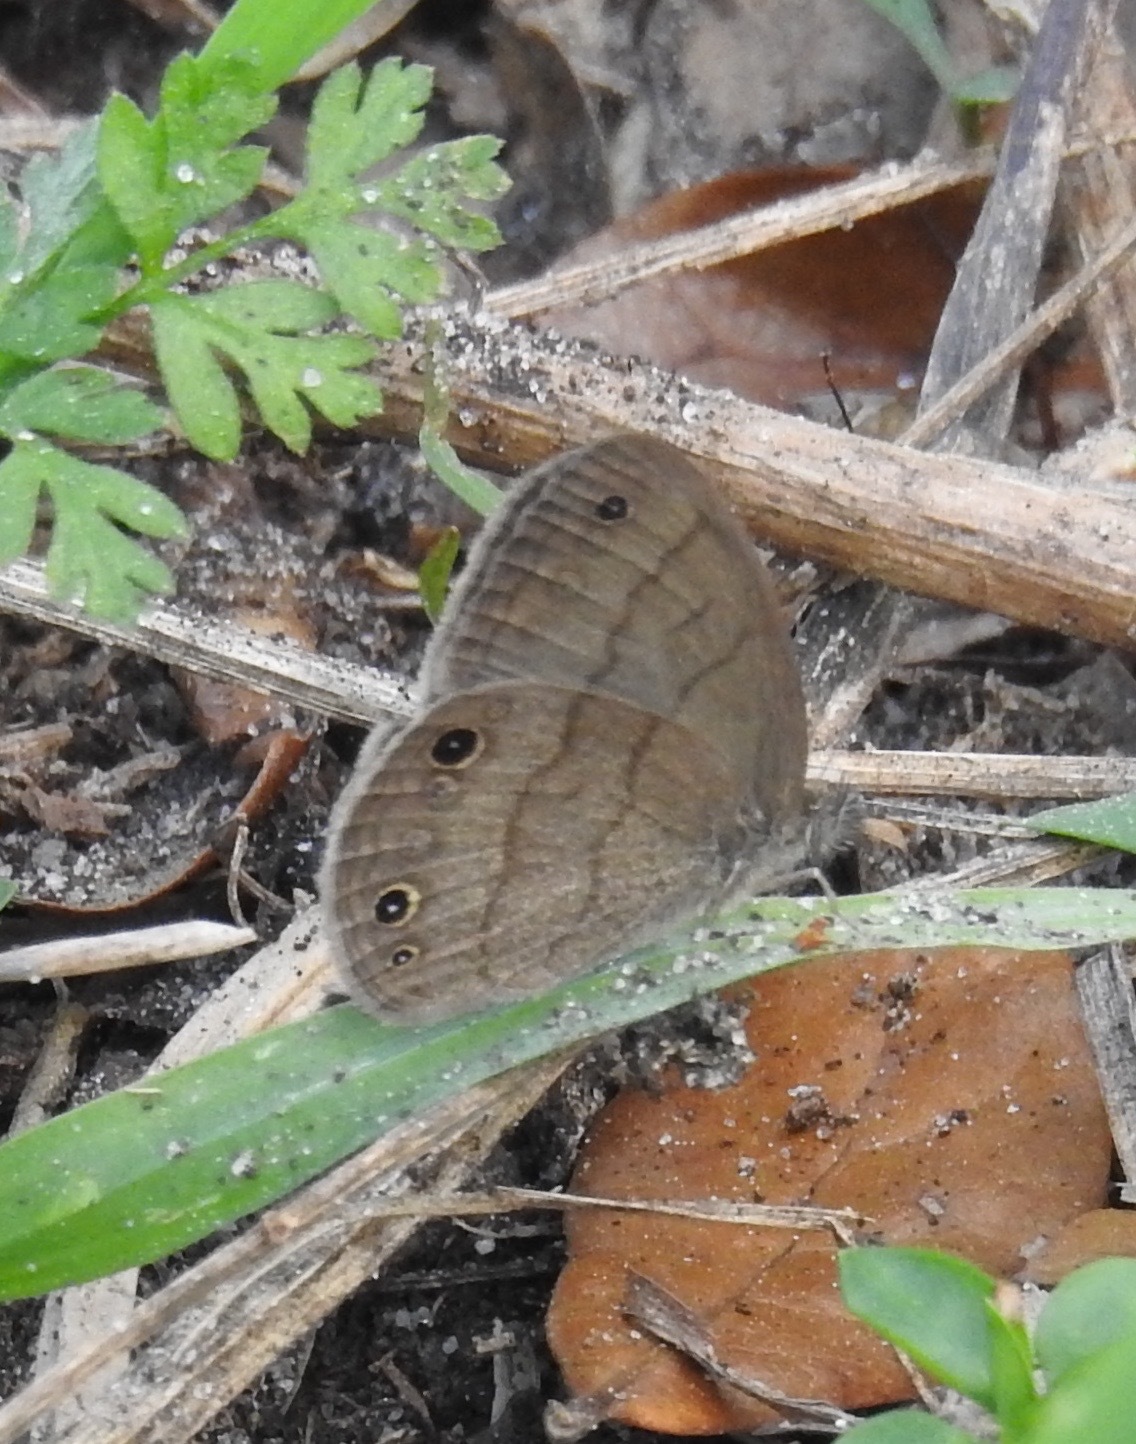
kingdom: Animalia
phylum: Arthropoda
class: Insecta
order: Lepidoptera
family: Nymphalidae
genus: Hermeuptychia
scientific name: Hermeuptychia hermes
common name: Hermes satyr
